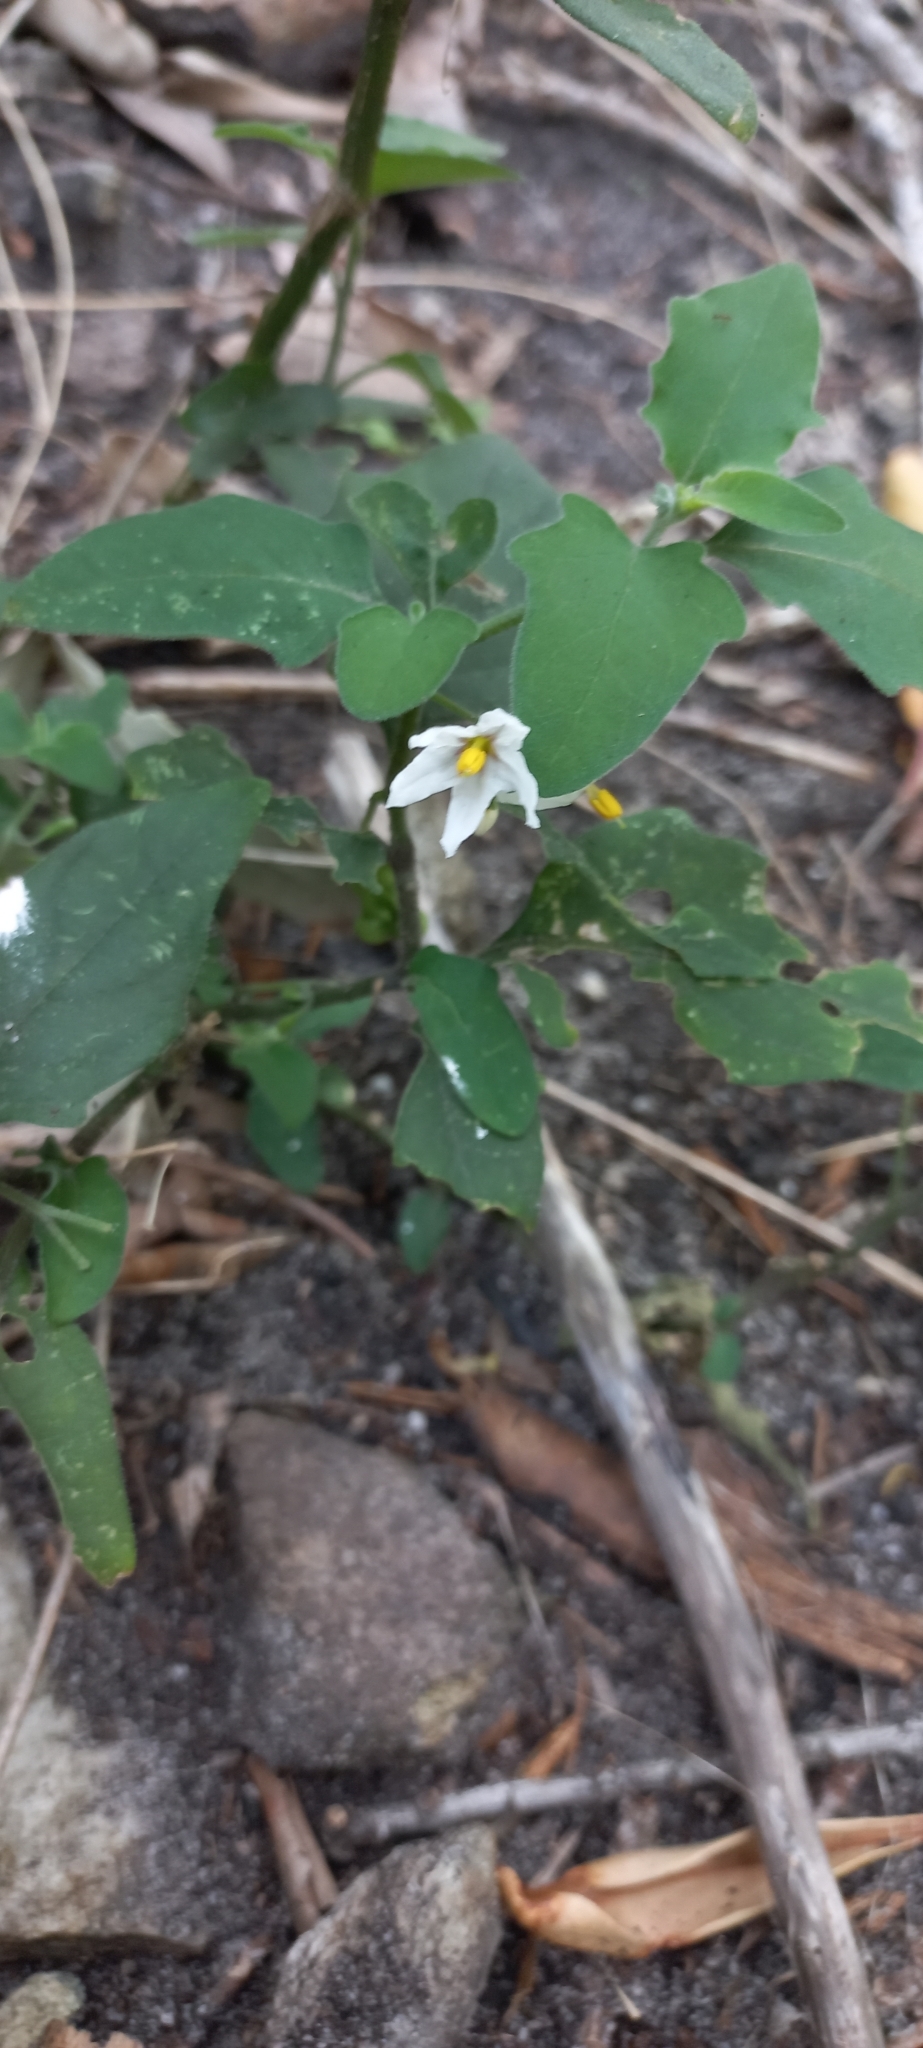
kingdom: Plantae
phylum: Tracheophyta
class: Magnoliopsida
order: Solanales
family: Solanaceae
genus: Solanum
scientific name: Solanum nigrum
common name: Black nightshade
